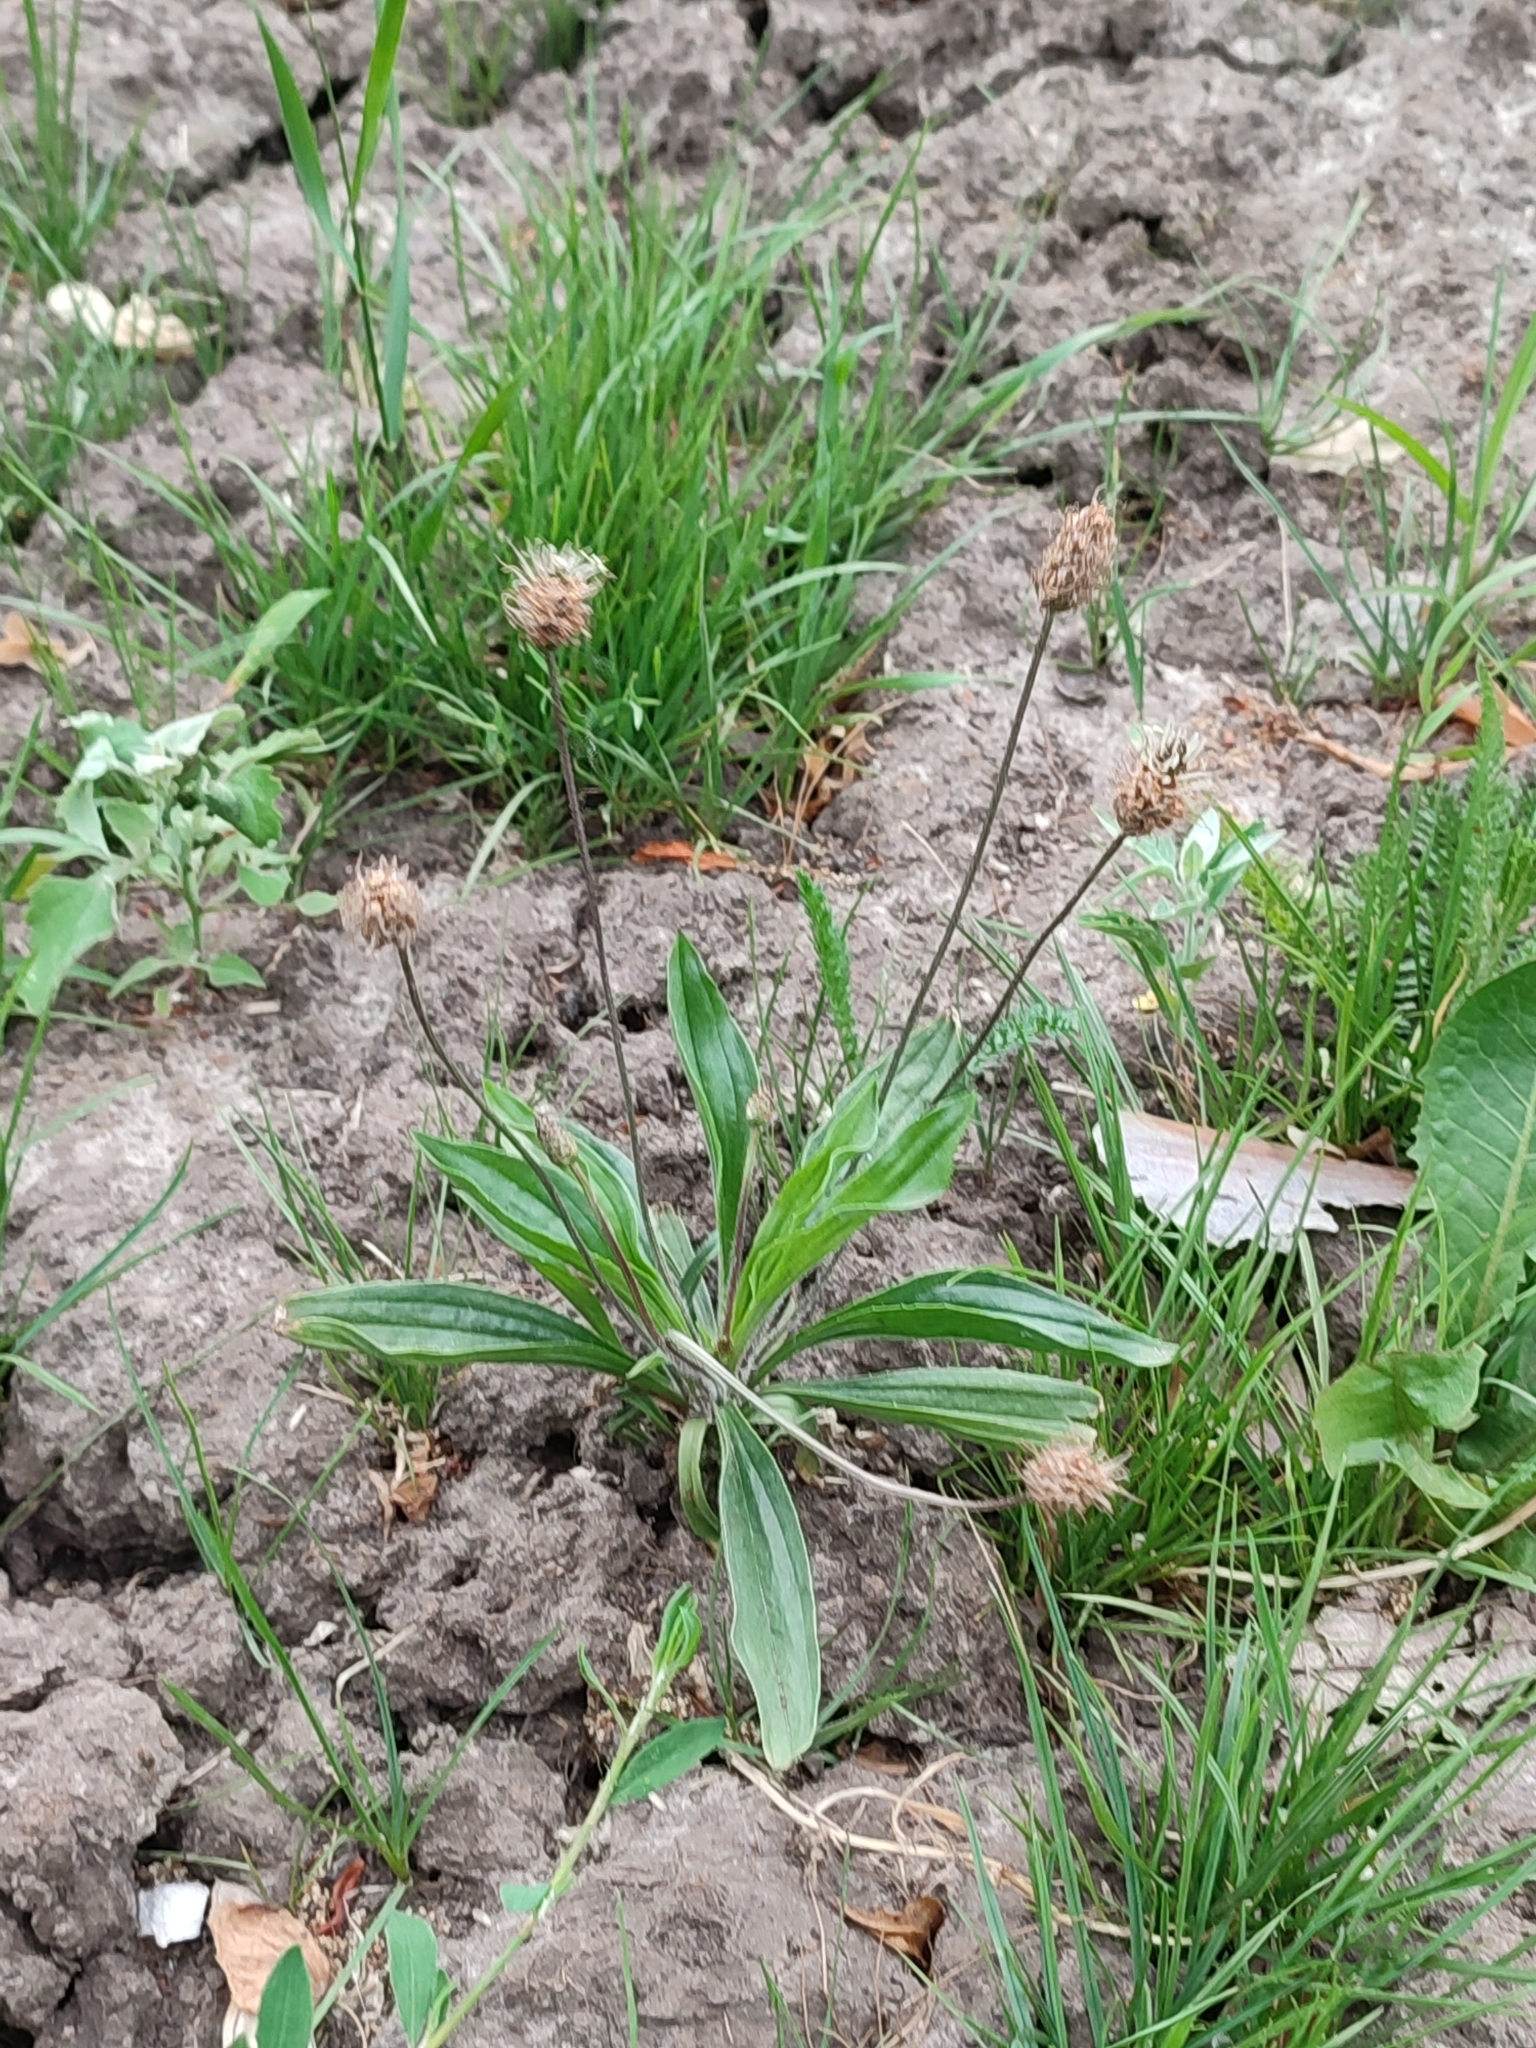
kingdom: Plantae
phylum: Tracheophyta
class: Magnoliopsida
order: Lamiales
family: Plantaginaceae
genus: Plantago
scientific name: Plantago lanceolata
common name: Ribwort plantain
